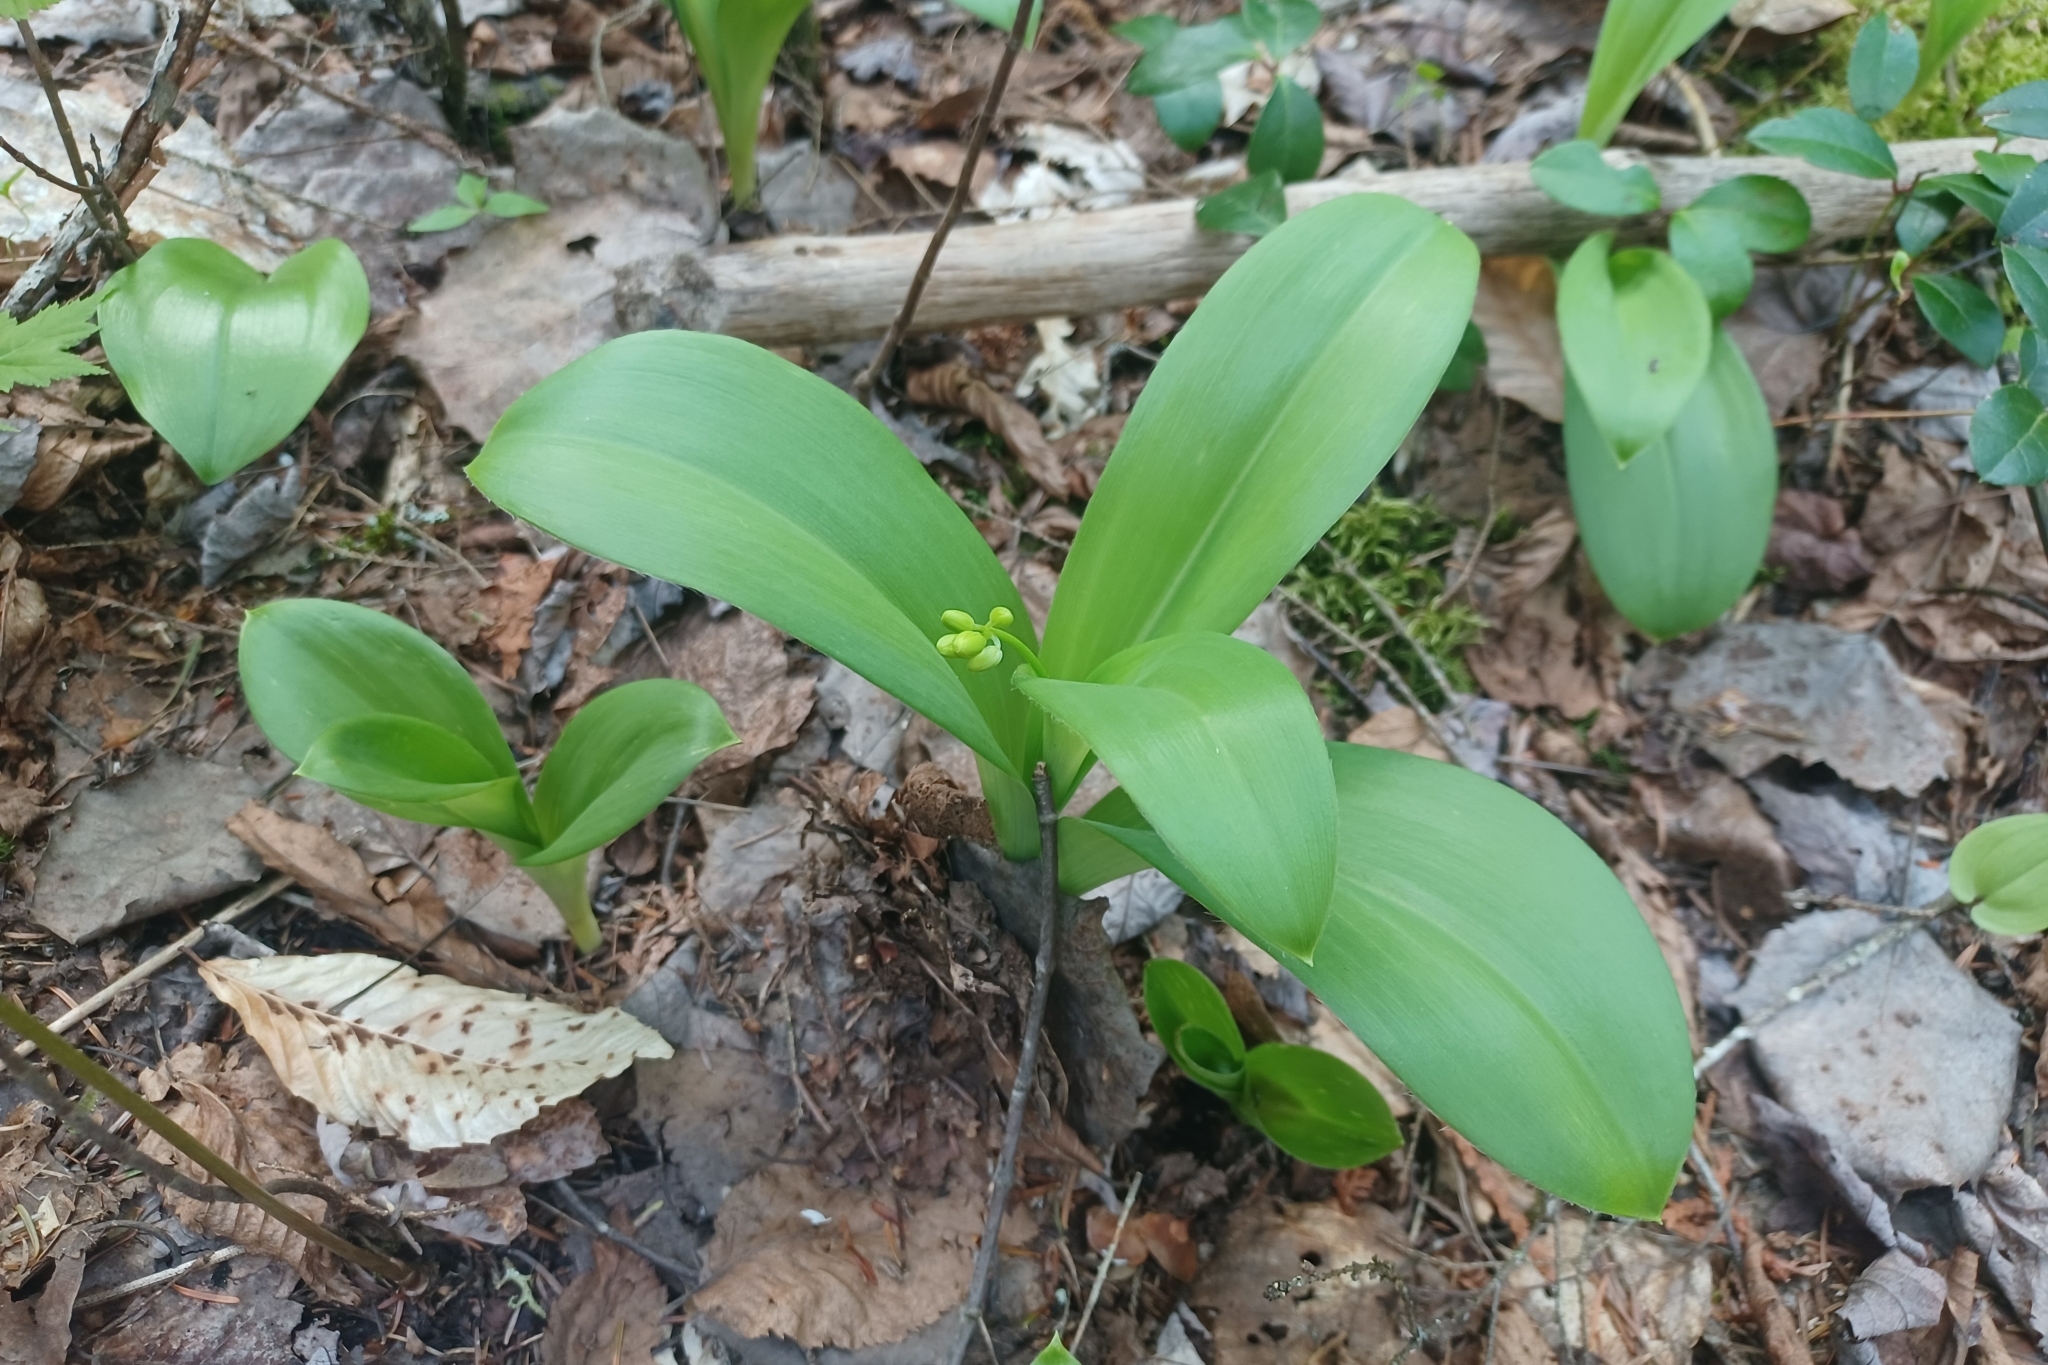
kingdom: Plantae
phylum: Tracheophyta
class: Liliopsida
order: Liliales
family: Liliaceae
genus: Clintonia
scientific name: Clintonia borealis
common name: Yellow clintonia
